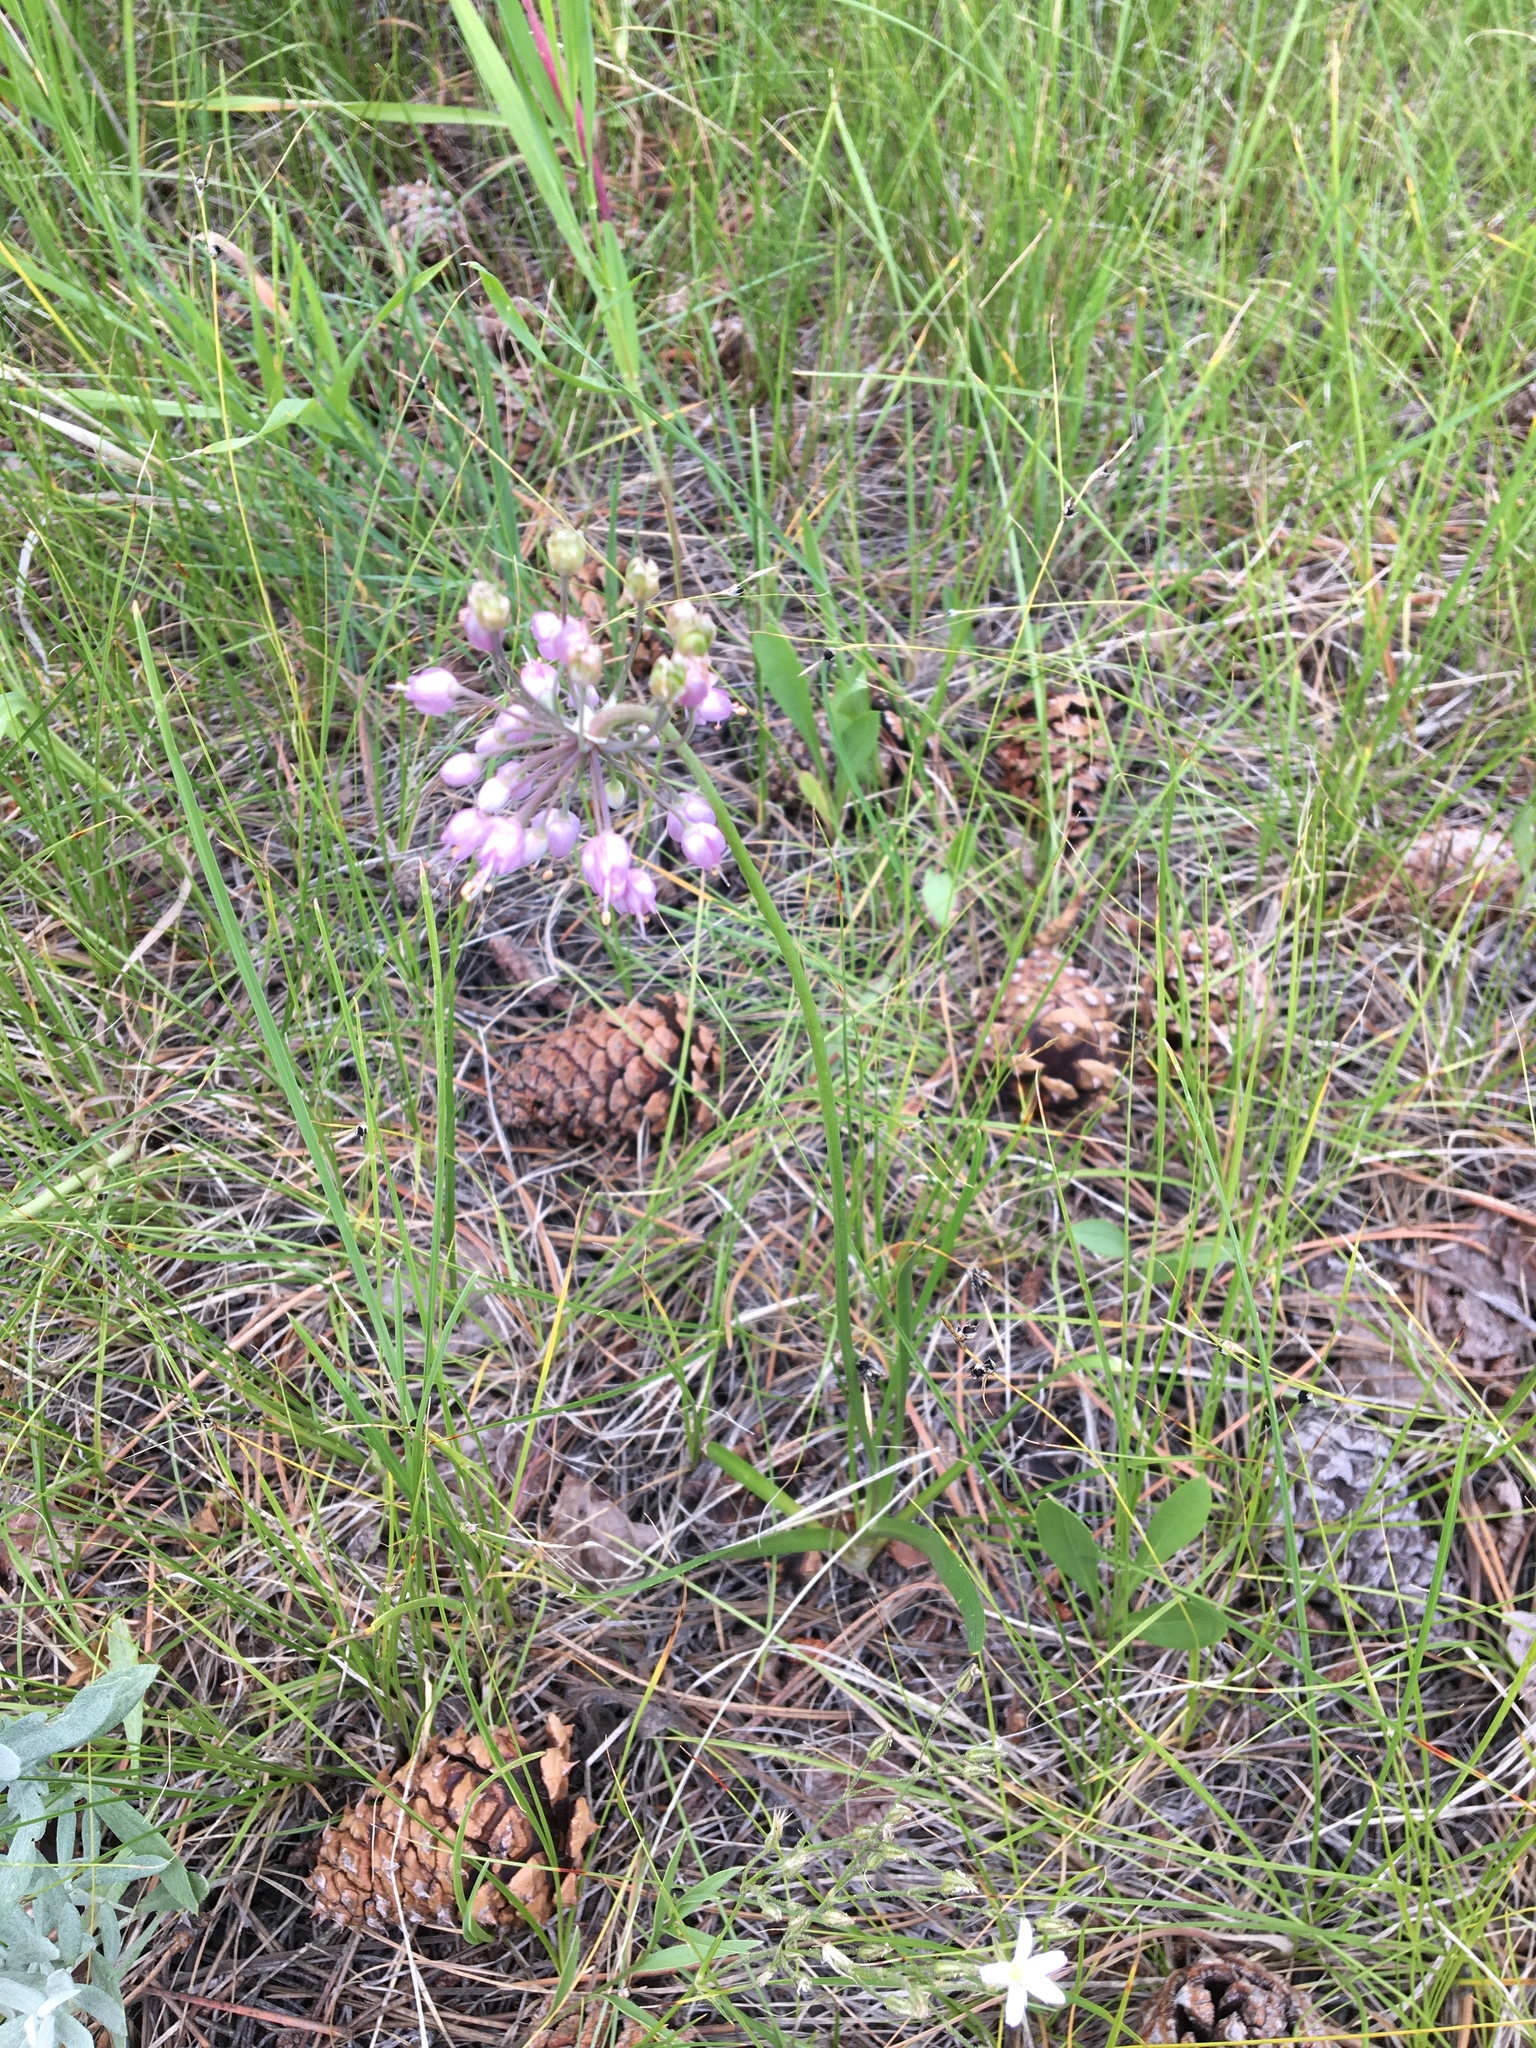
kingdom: Plantae
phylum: Tracheophyta
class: Liliopsida
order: Asparagales
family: Amaryllidaceae
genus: Allium
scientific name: Allium cernuum
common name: Nodding onion
